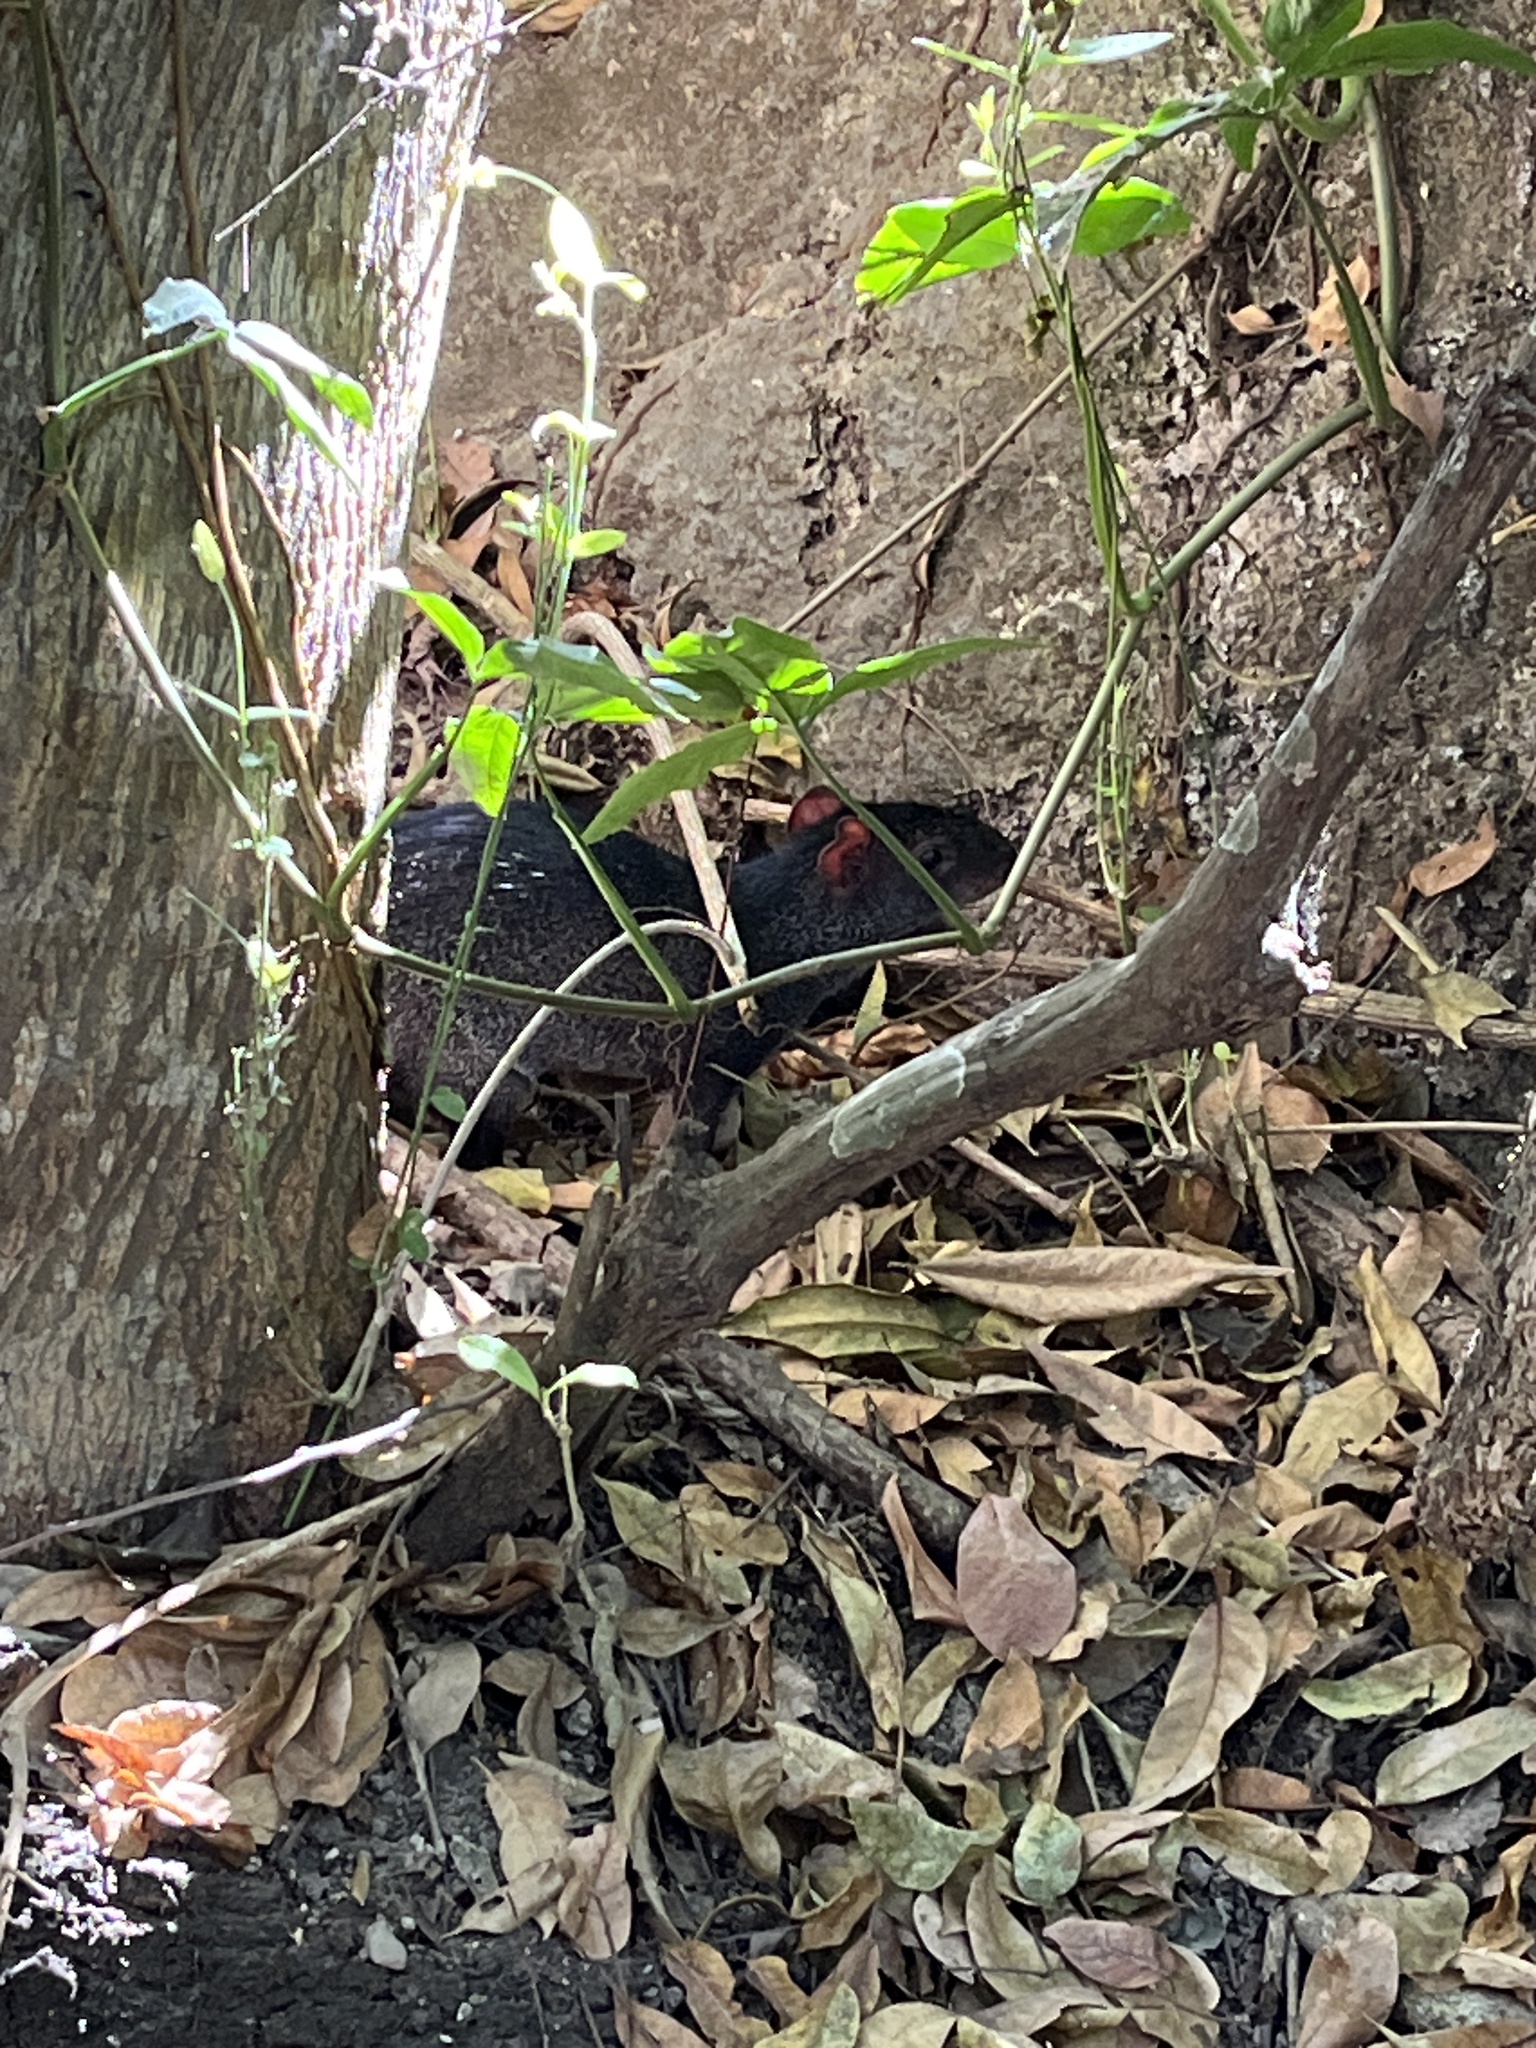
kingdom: Animalia
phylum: Chordata
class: Mammalia
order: Rodentia
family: Dasyproctidae
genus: Dasyprocta
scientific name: Dasyprocta mexicana
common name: Mexican agouti
